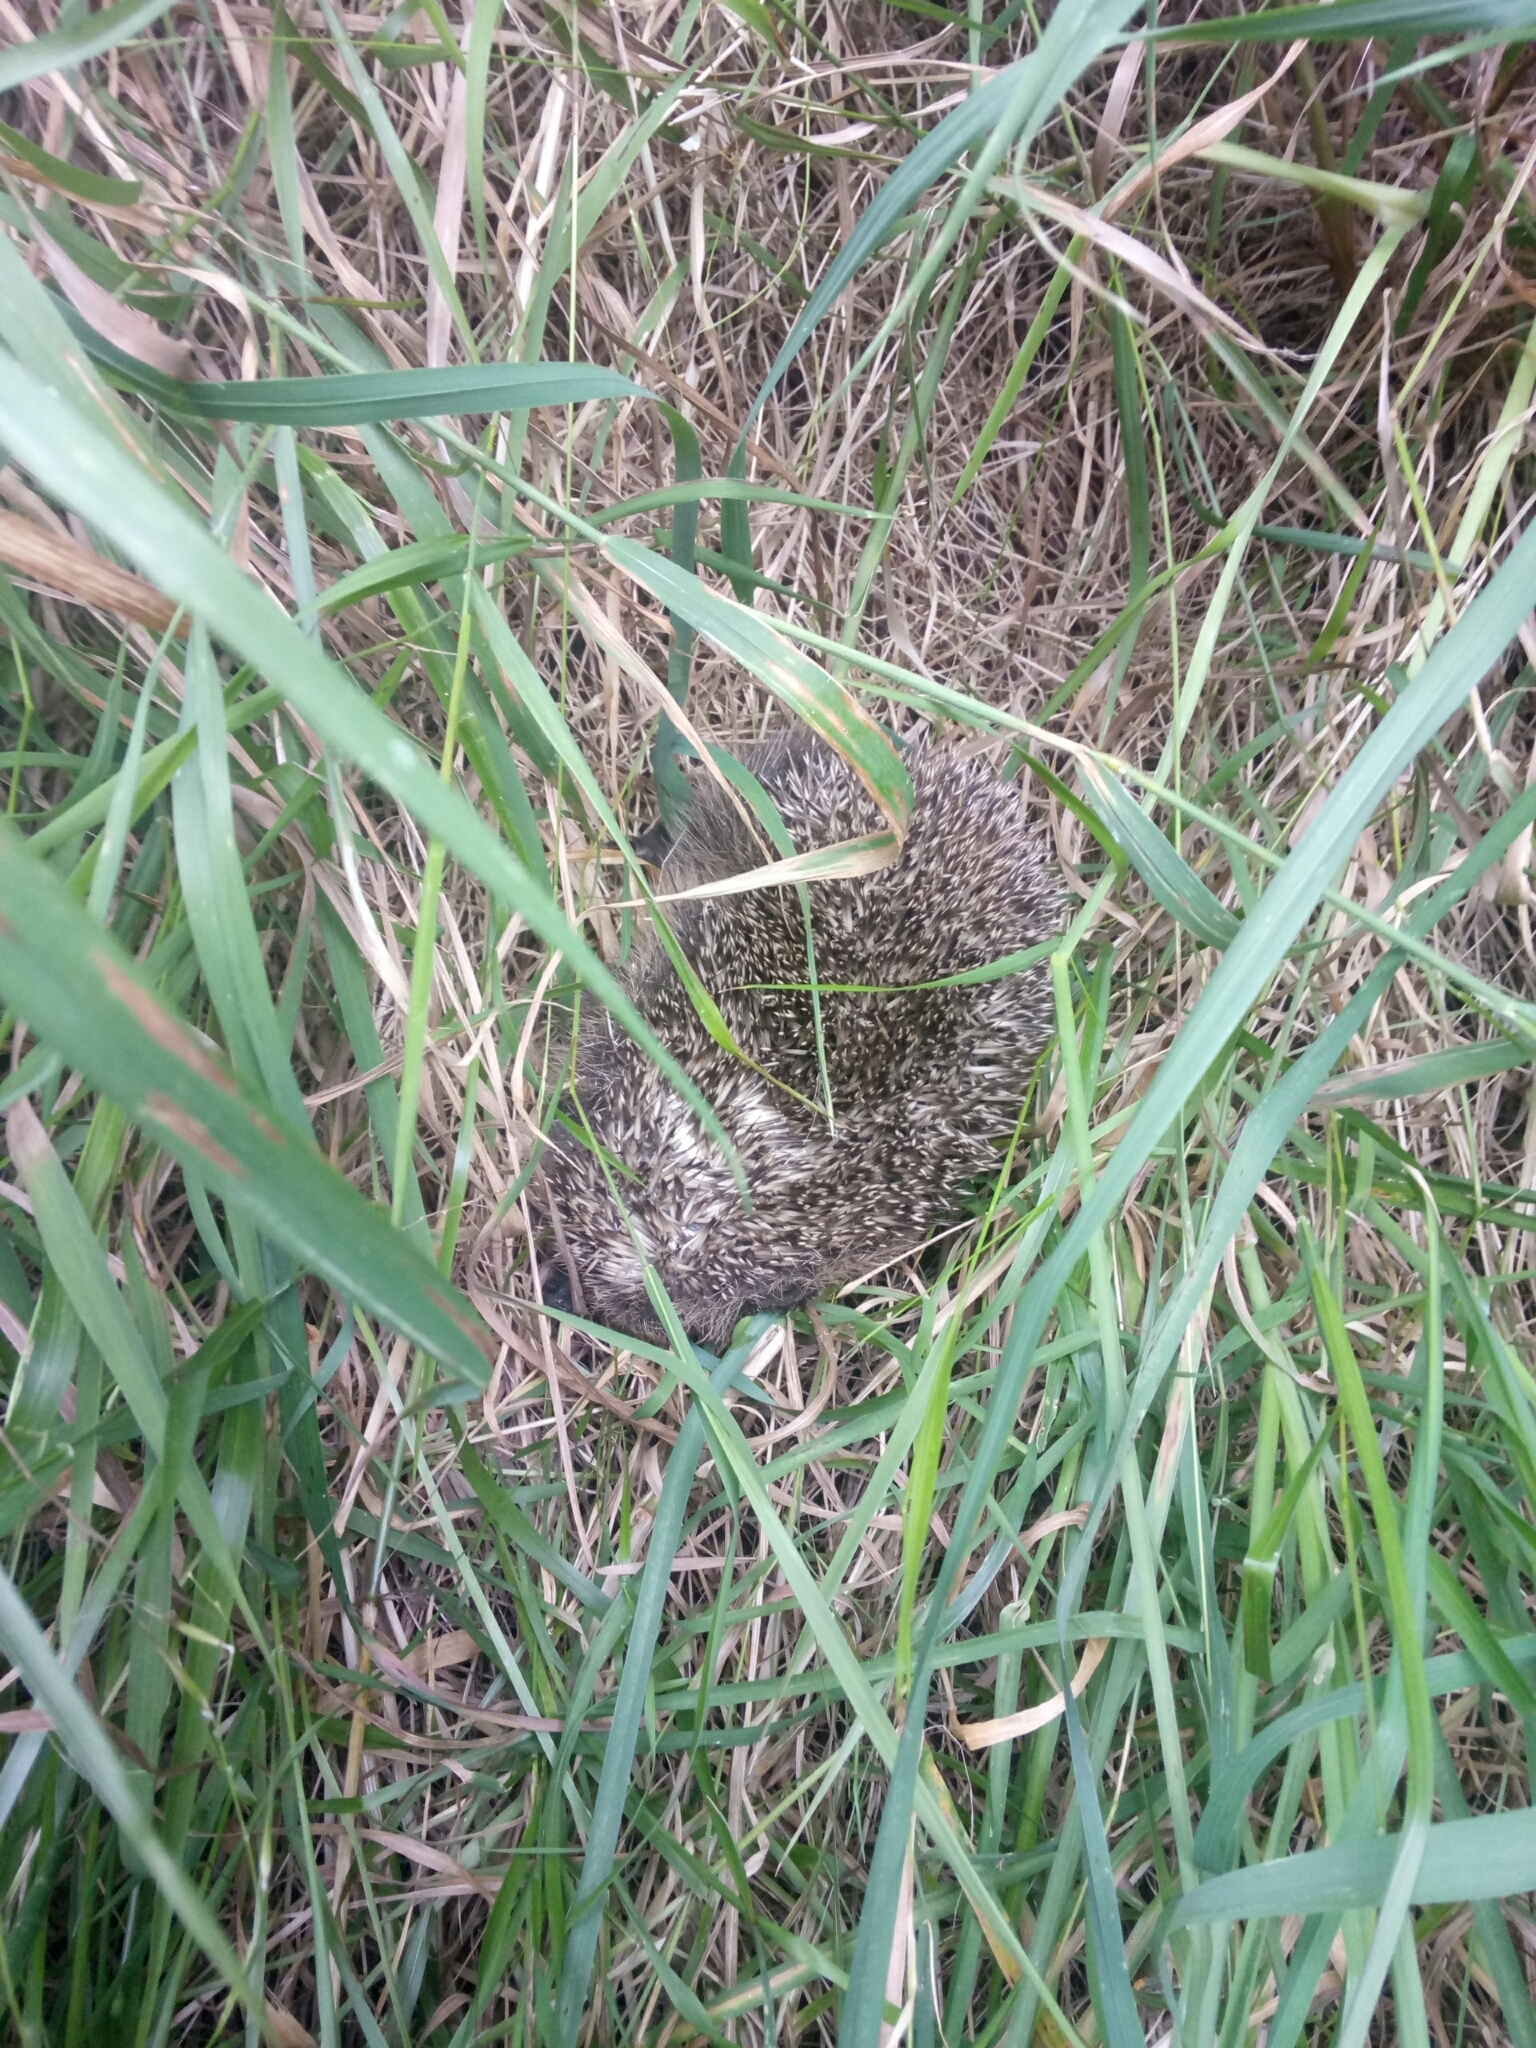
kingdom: Animalia
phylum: Chordata
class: Mammalia
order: Erinaceomorpha
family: Erinaceidae
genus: Erinaceus
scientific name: Erinaceus europaeus
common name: West european hedgehog
